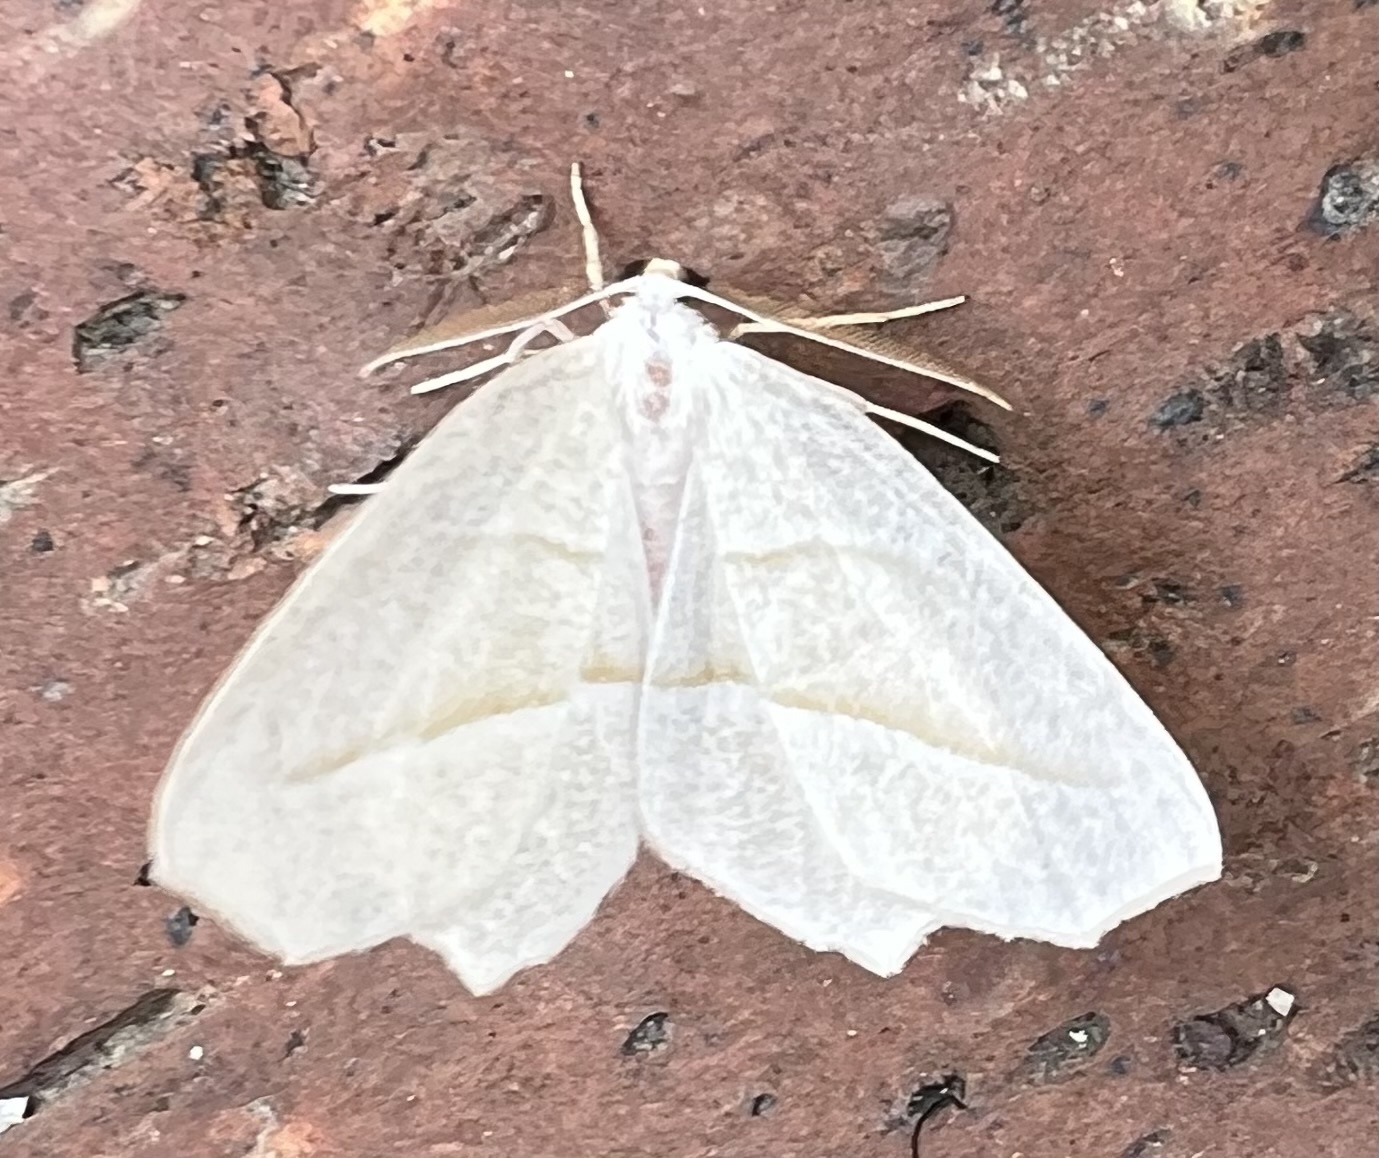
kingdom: Animalia
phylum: Arthropoda
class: Insecta
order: Lepidoptera
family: Geometridae
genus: Campaea
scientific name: Campaea perlata
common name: Fringed looper
